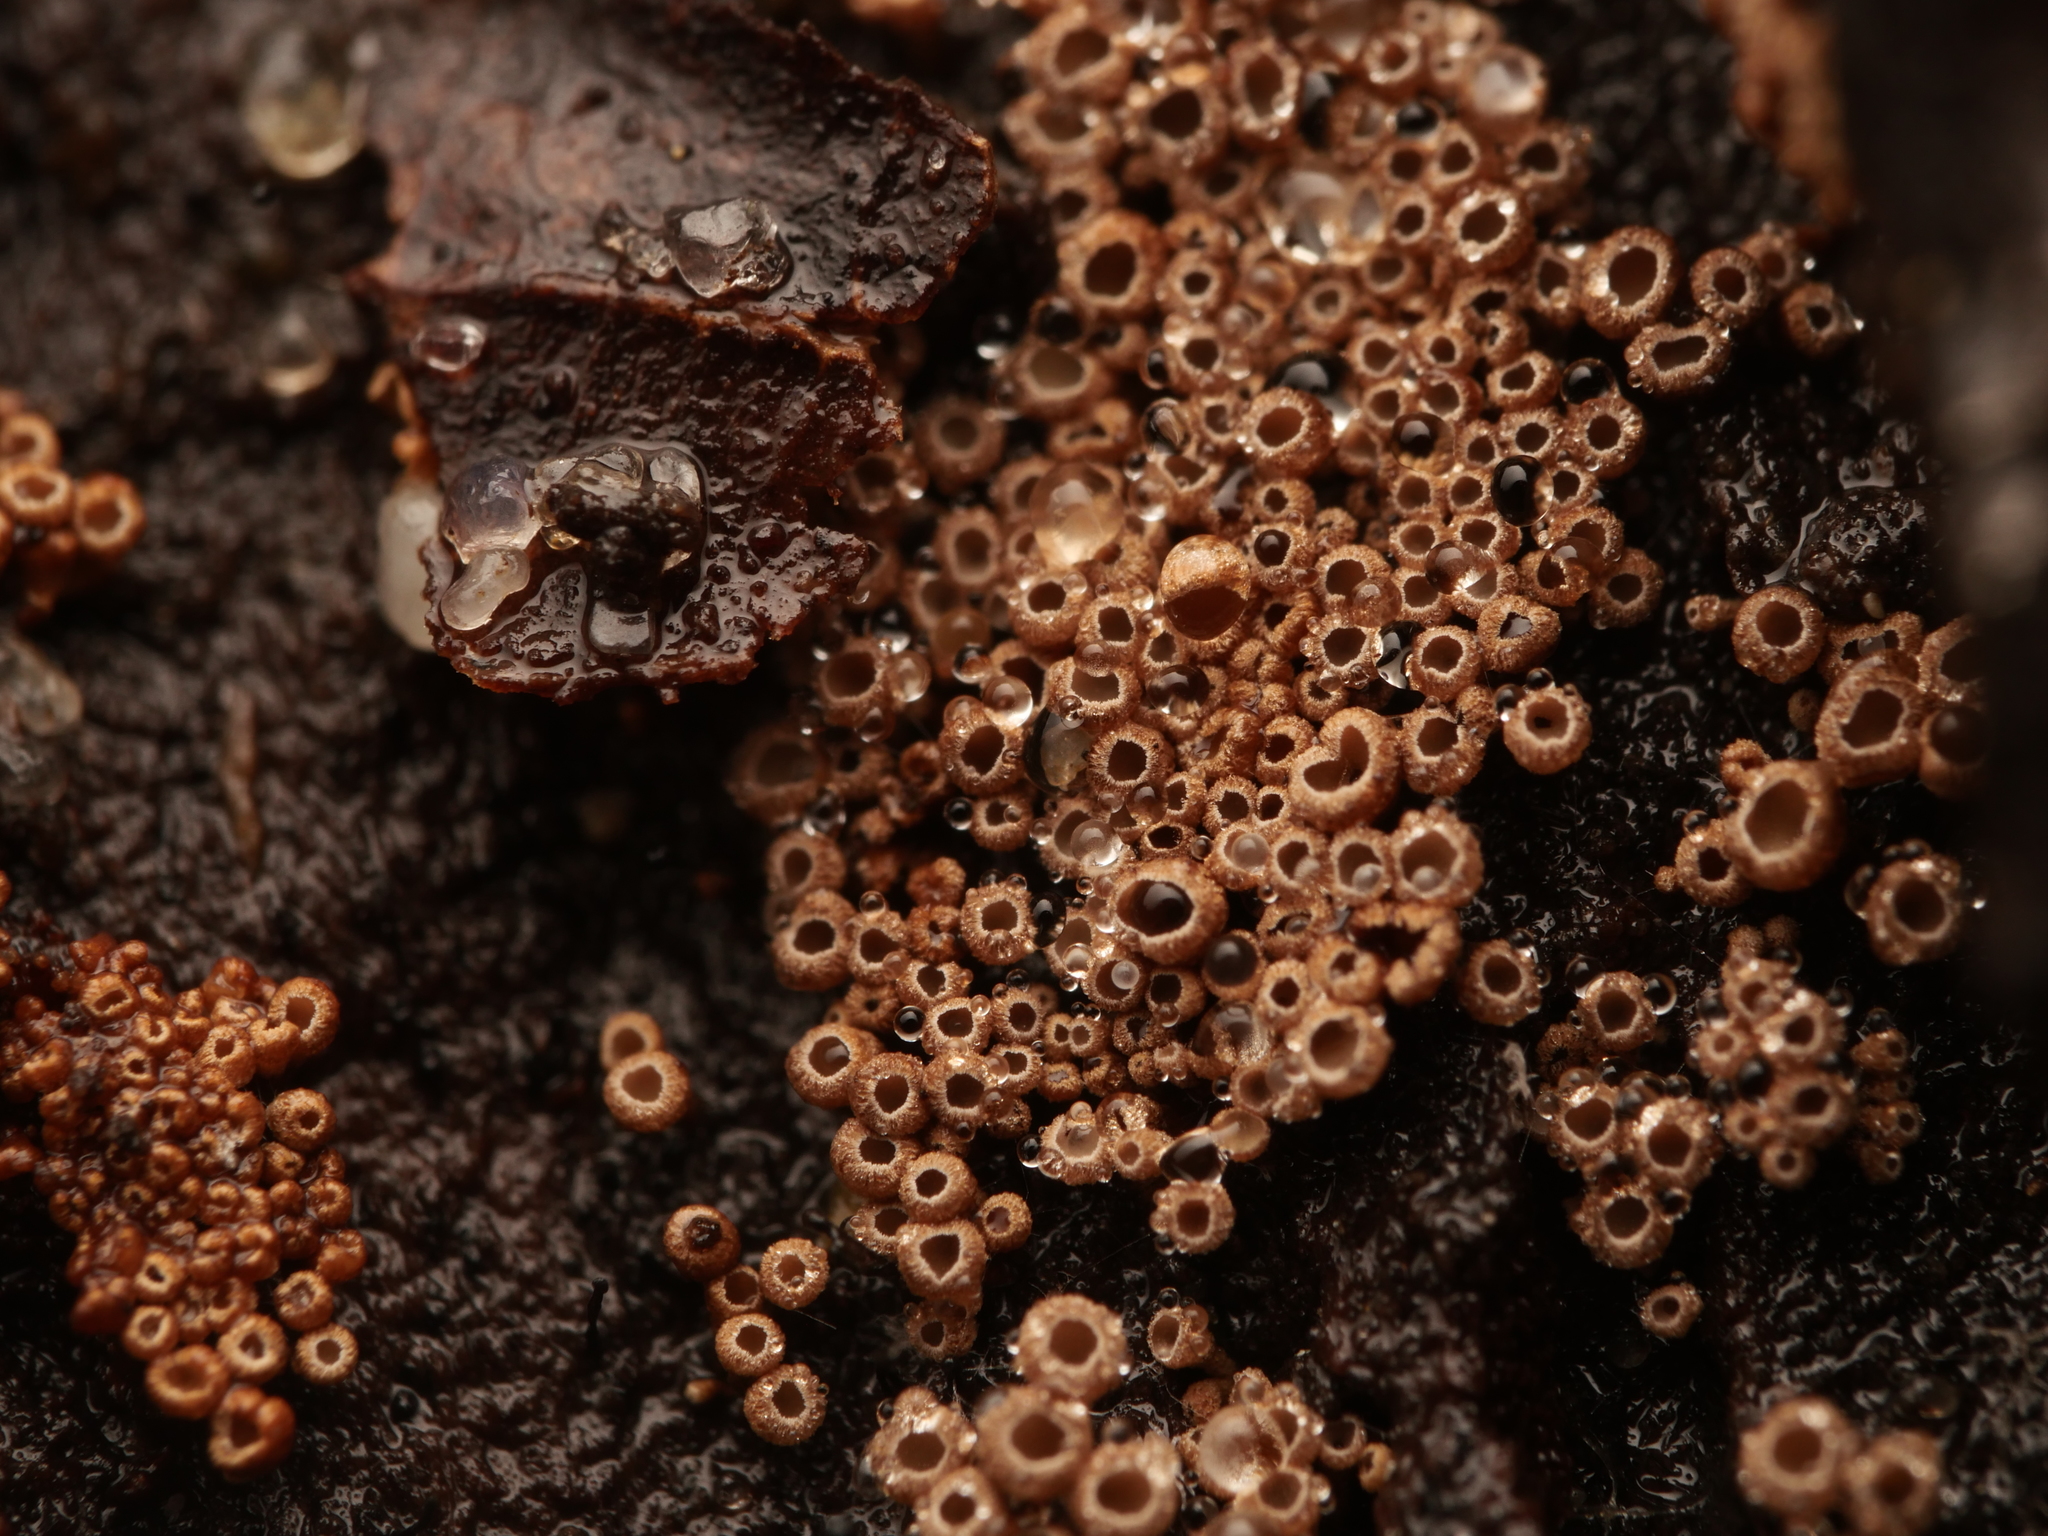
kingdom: Fungi
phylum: Basidiomycota
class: Agaricomycetes
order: Agaricales
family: Niaceae
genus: Merismodes
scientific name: Merismodes anomala
